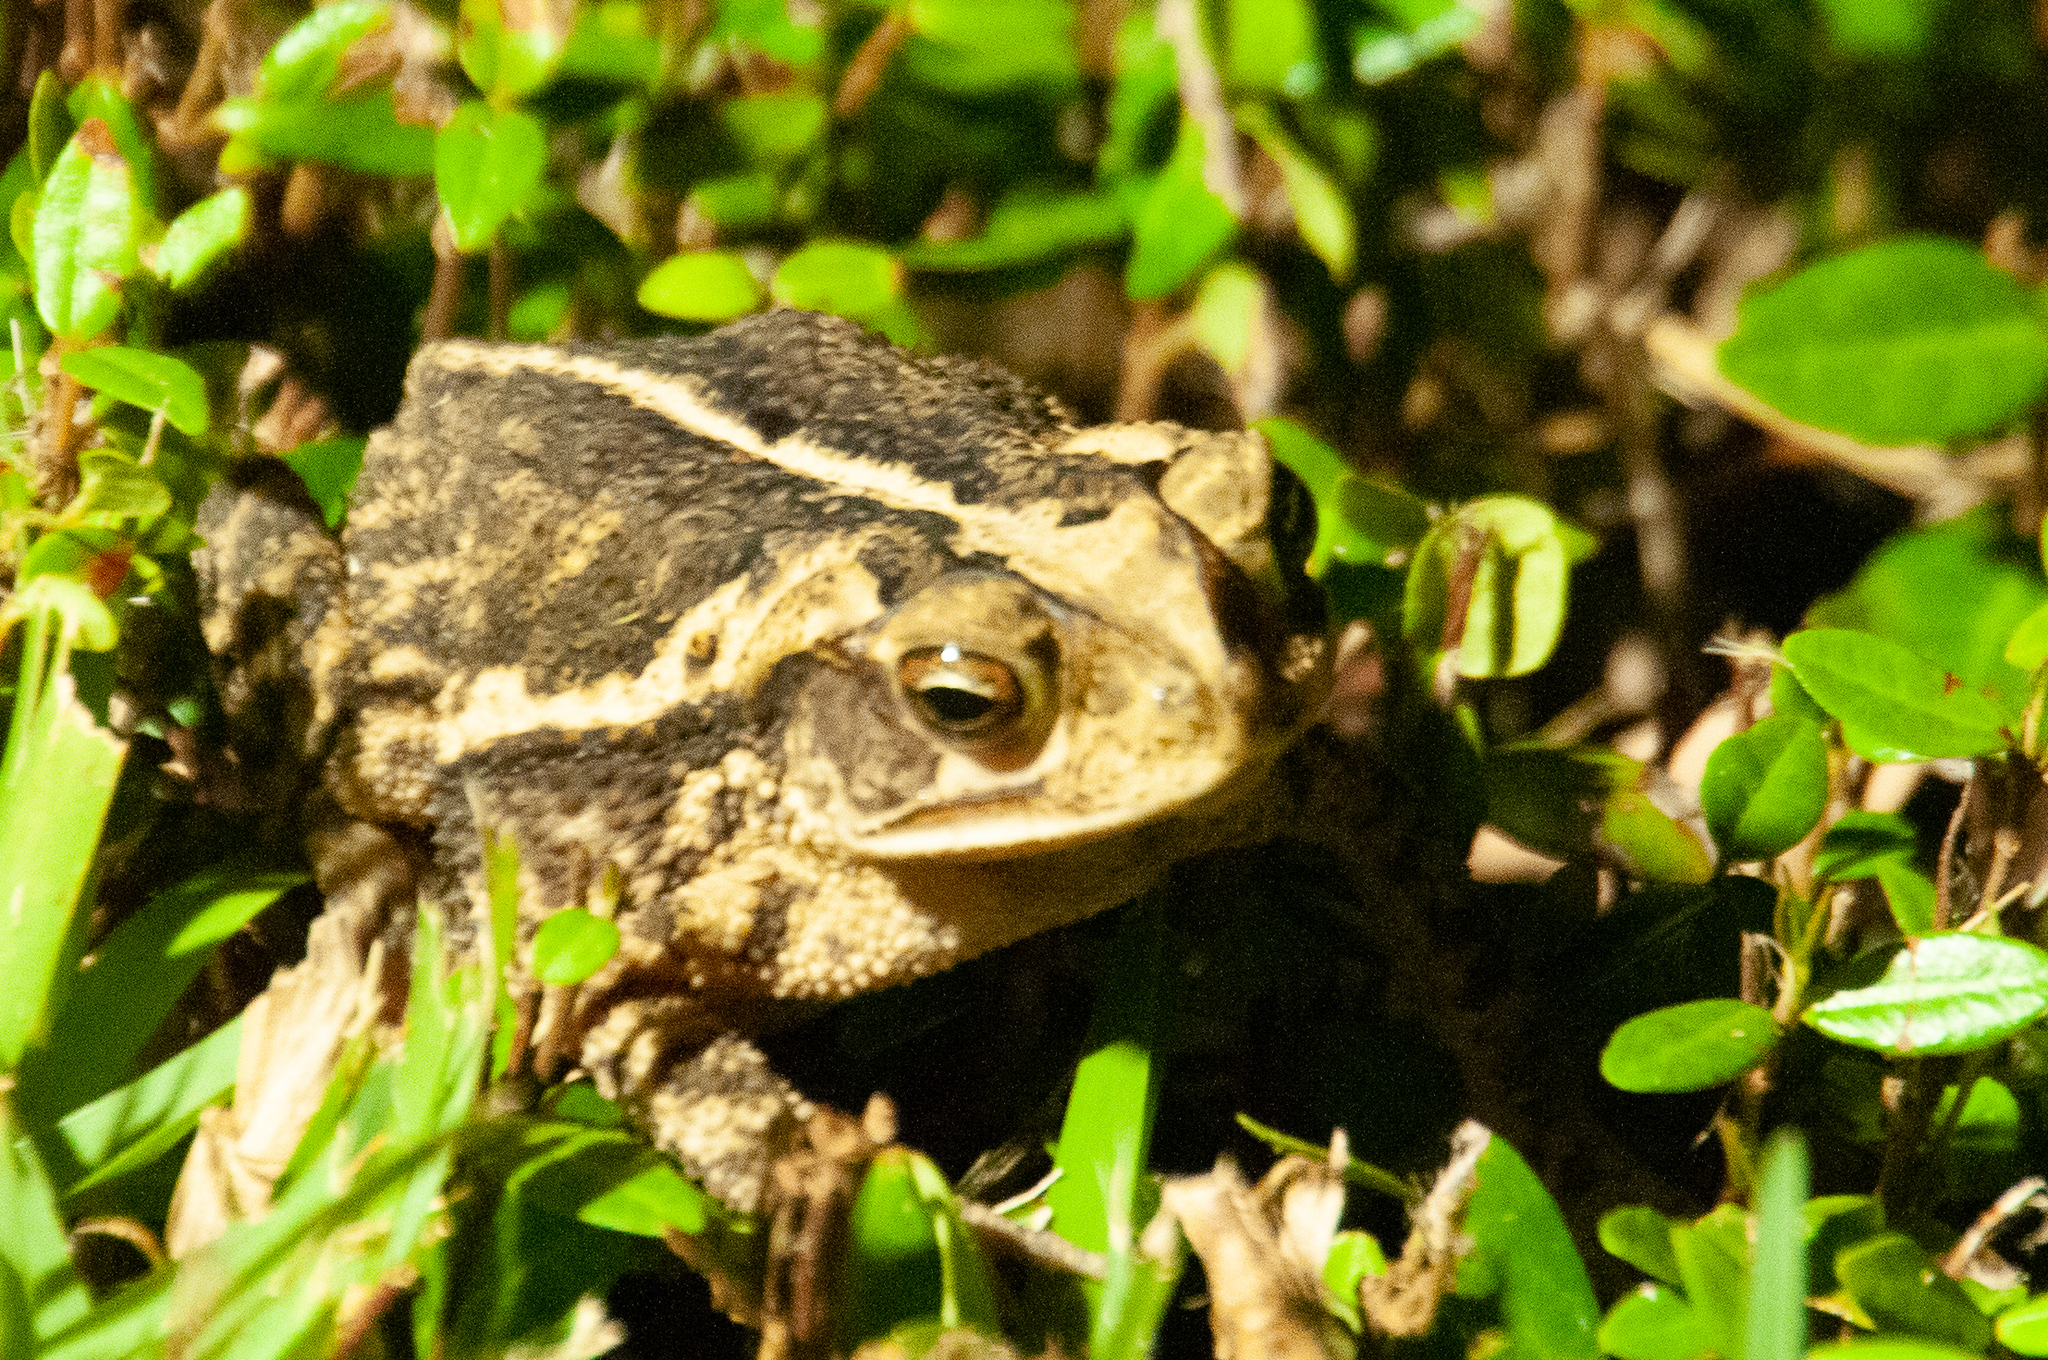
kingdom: Animalia
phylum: Chordata
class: Amphibia
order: Anura
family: Bufonidae
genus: Incilius
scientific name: Incilius nebulifer
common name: Gulf coast toad
